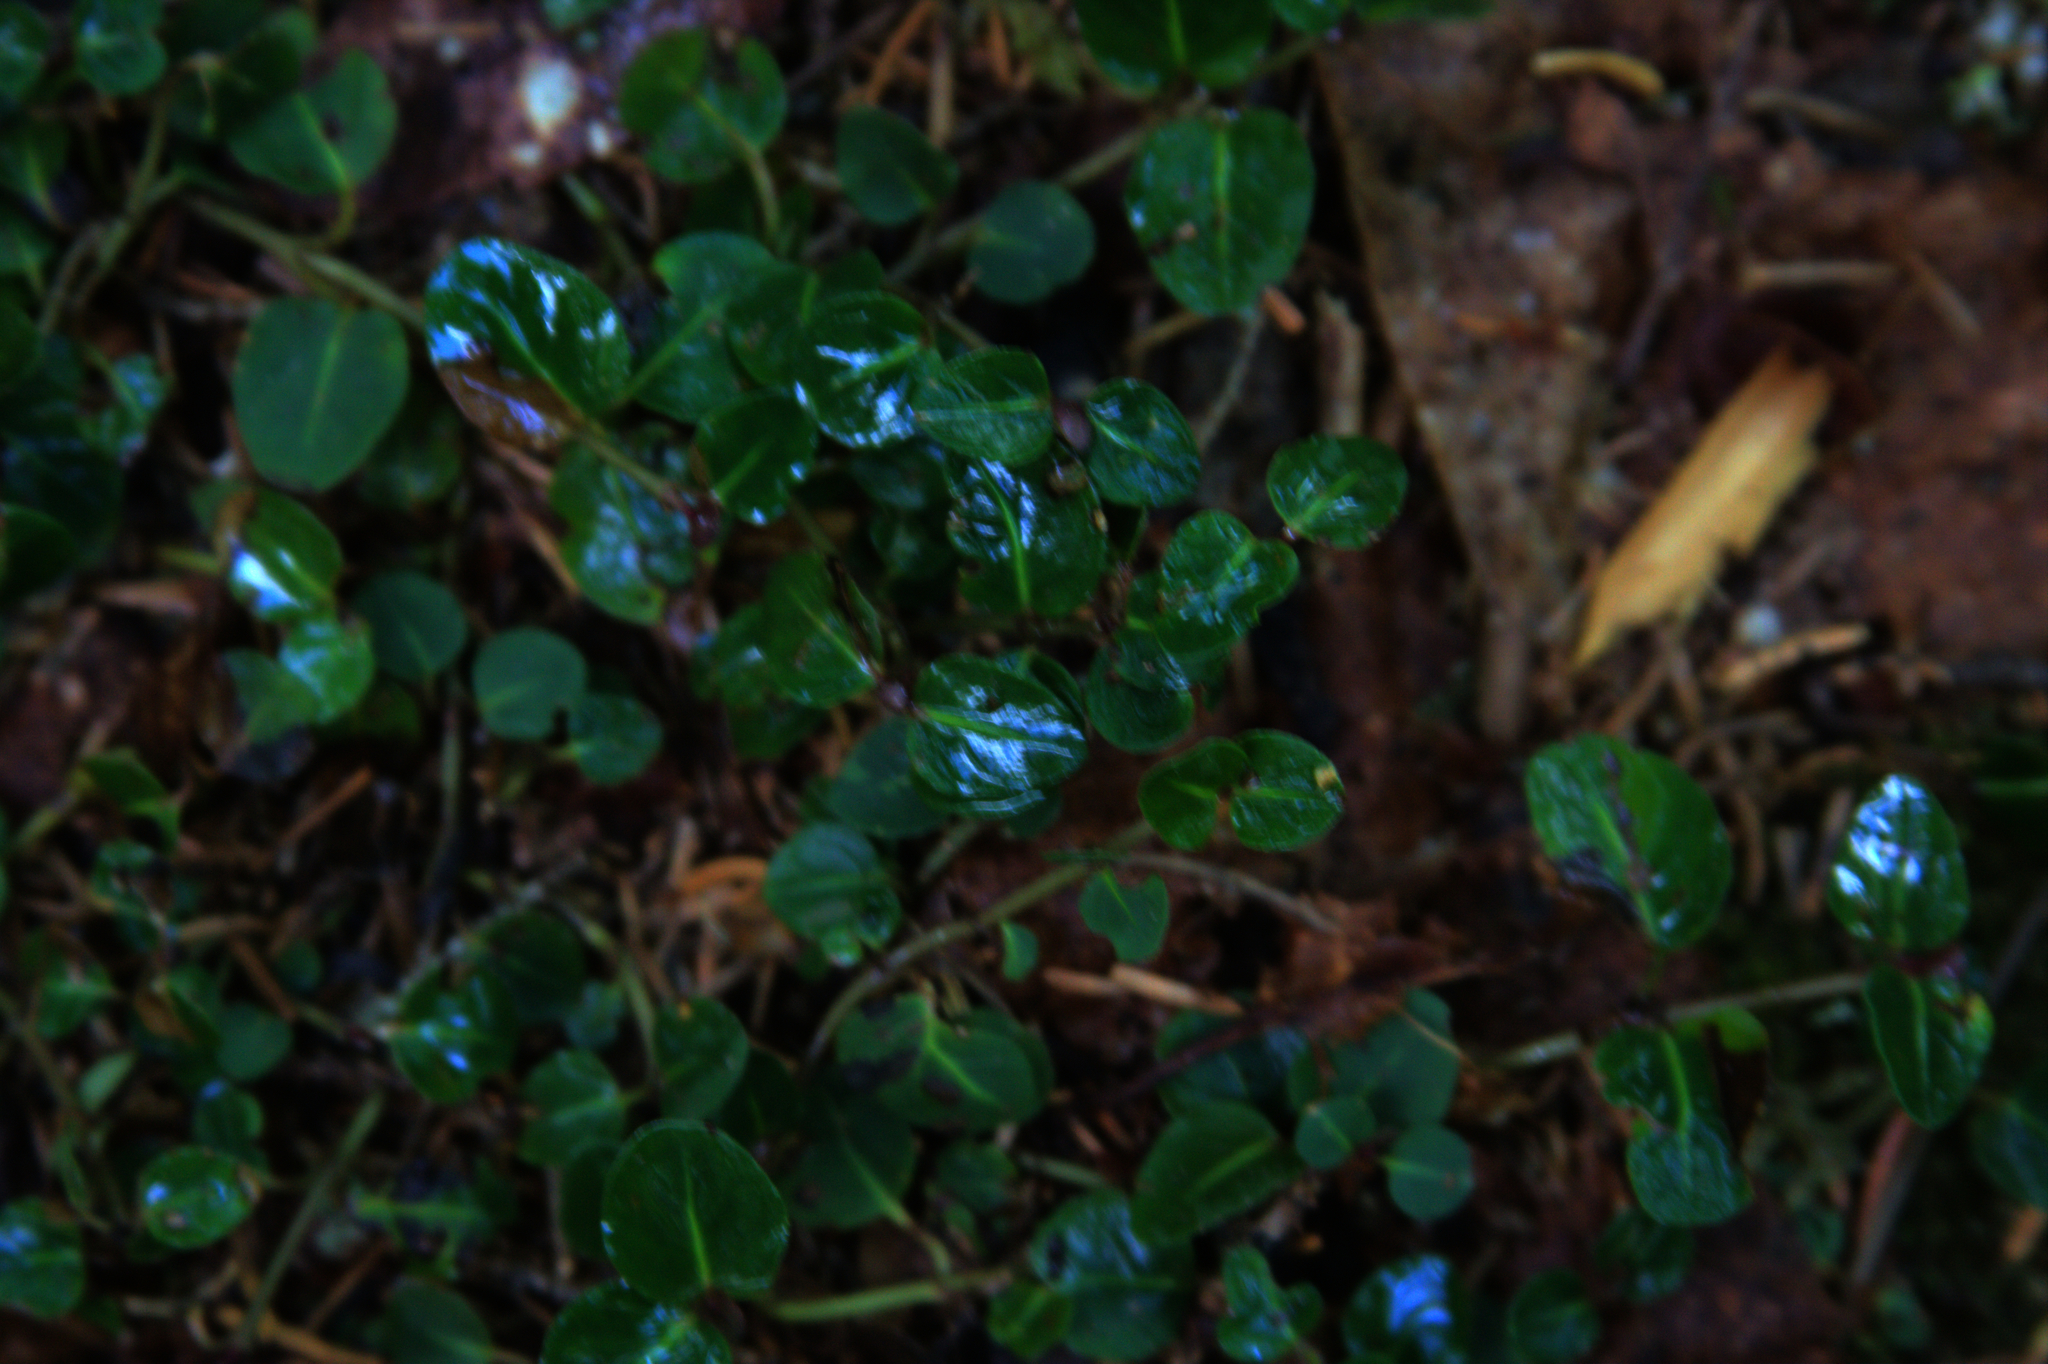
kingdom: Plantae
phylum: Tracheophyta
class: Magnoliopsida
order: Gentianales
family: Rubiaceae
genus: Mitchella
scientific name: Mitchella repens
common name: Partridge-berry
